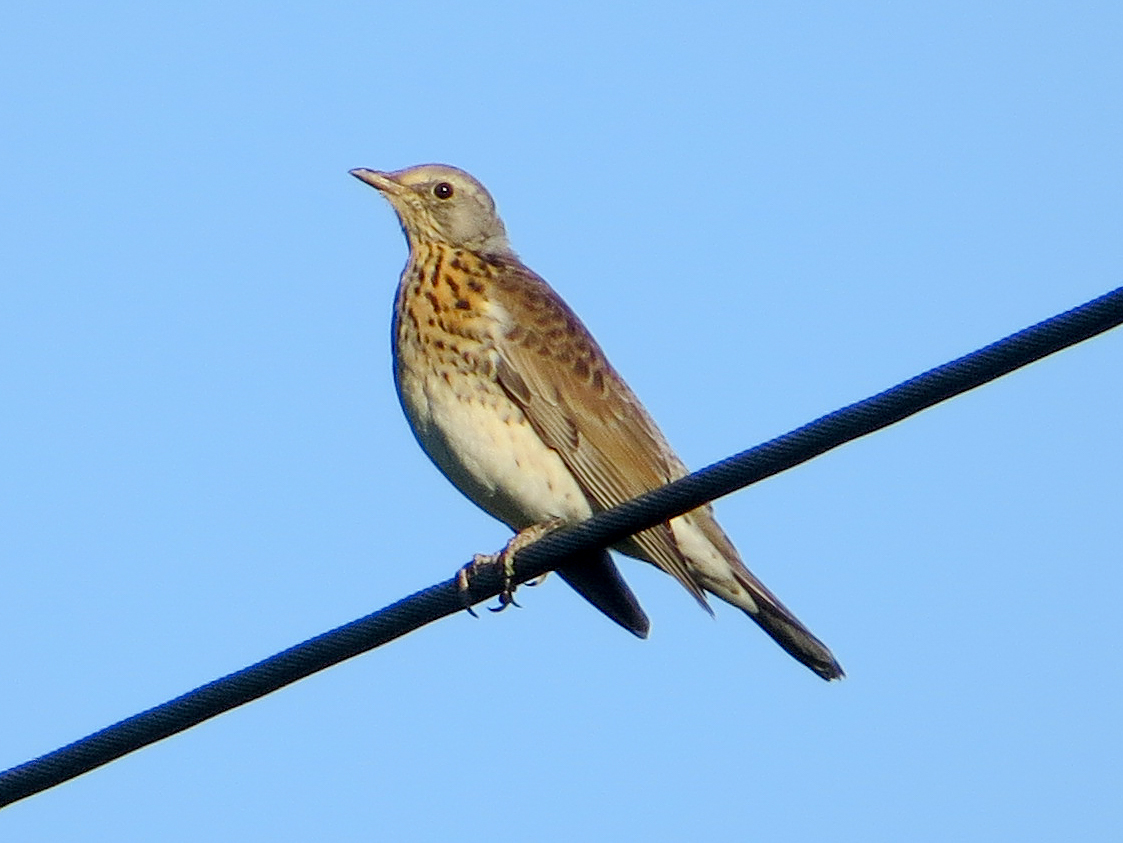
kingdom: Animalia
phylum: Chordata
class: Aves
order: Passeriformes
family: Turdidae
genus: Turdus
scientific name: Turdus pilaris
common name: Fieldfare
